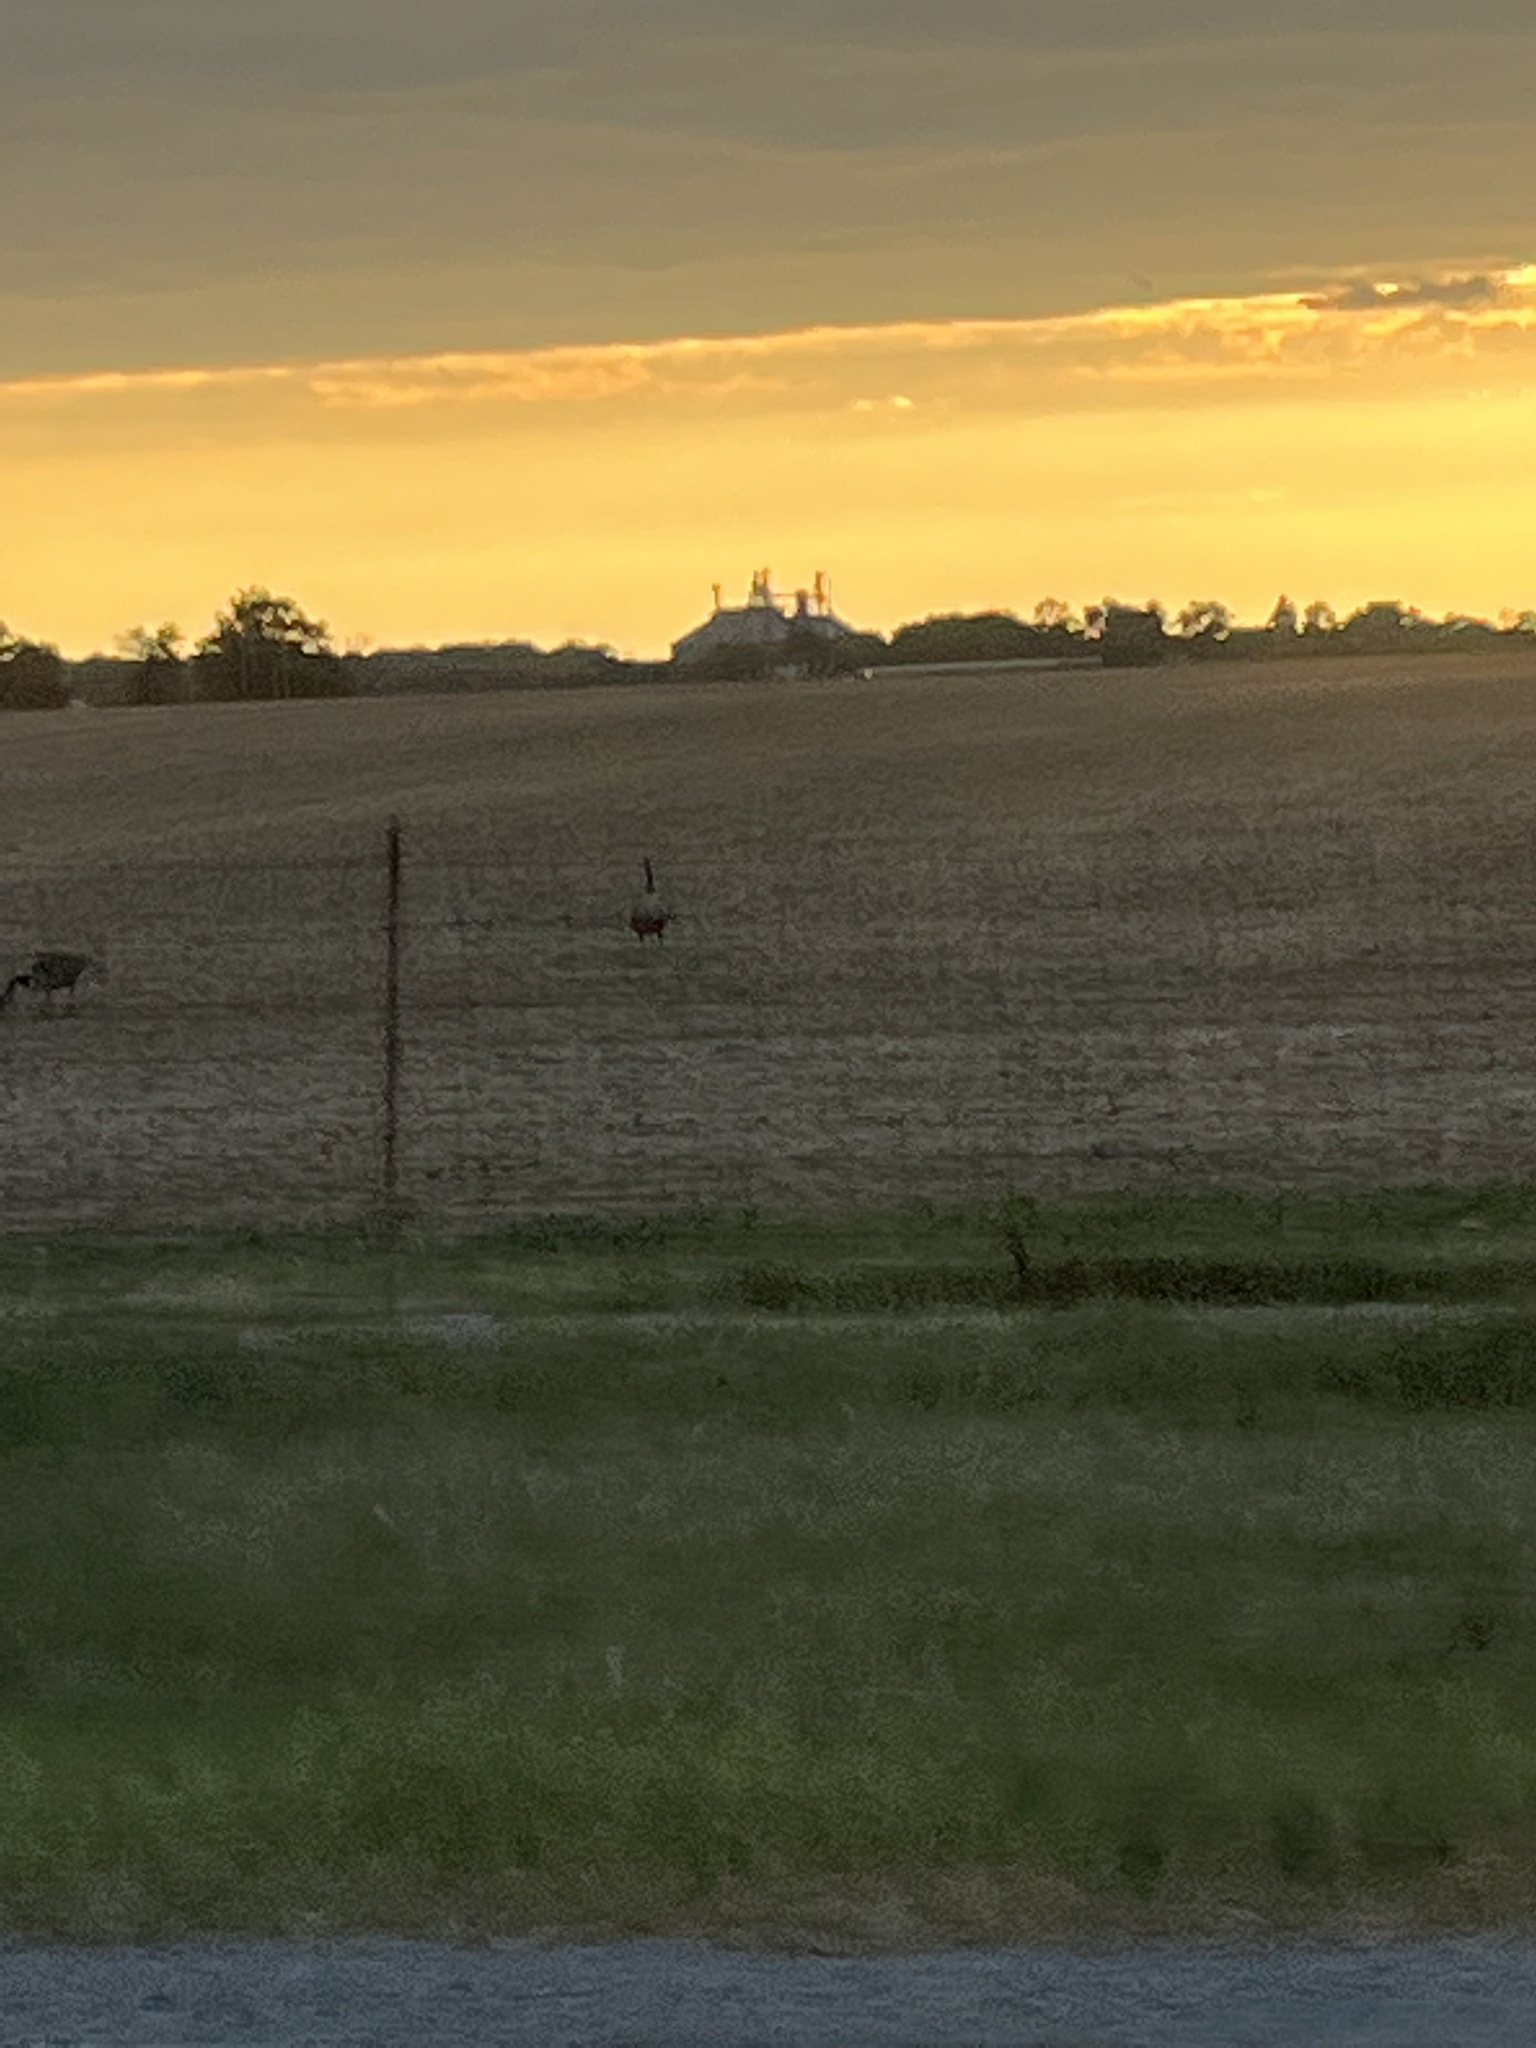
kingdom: Animalia
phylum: Chordata
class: Aves
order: Anseriformes
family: Anatidae
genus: Branta
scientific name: Branta canadensis
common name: Canada goose
